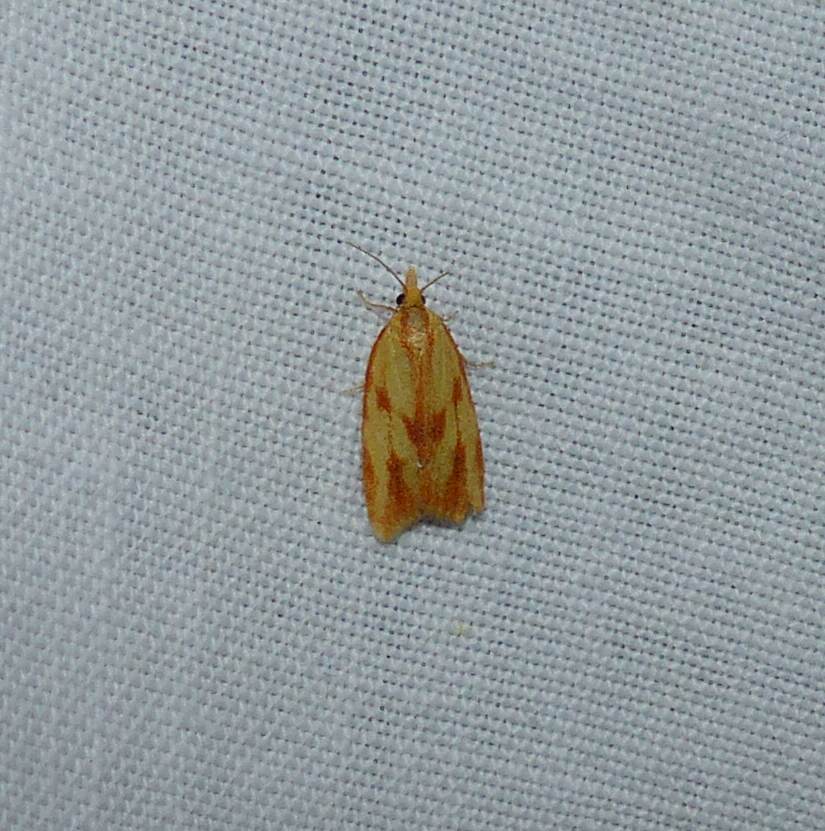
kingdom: Animalia
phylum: Arthropoda
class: Insecta
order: Lepidoptera
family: Tortricidae
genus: Sparganothis
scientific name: Sparganothis sulfureana
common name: Sparganothis fruitworm moth
